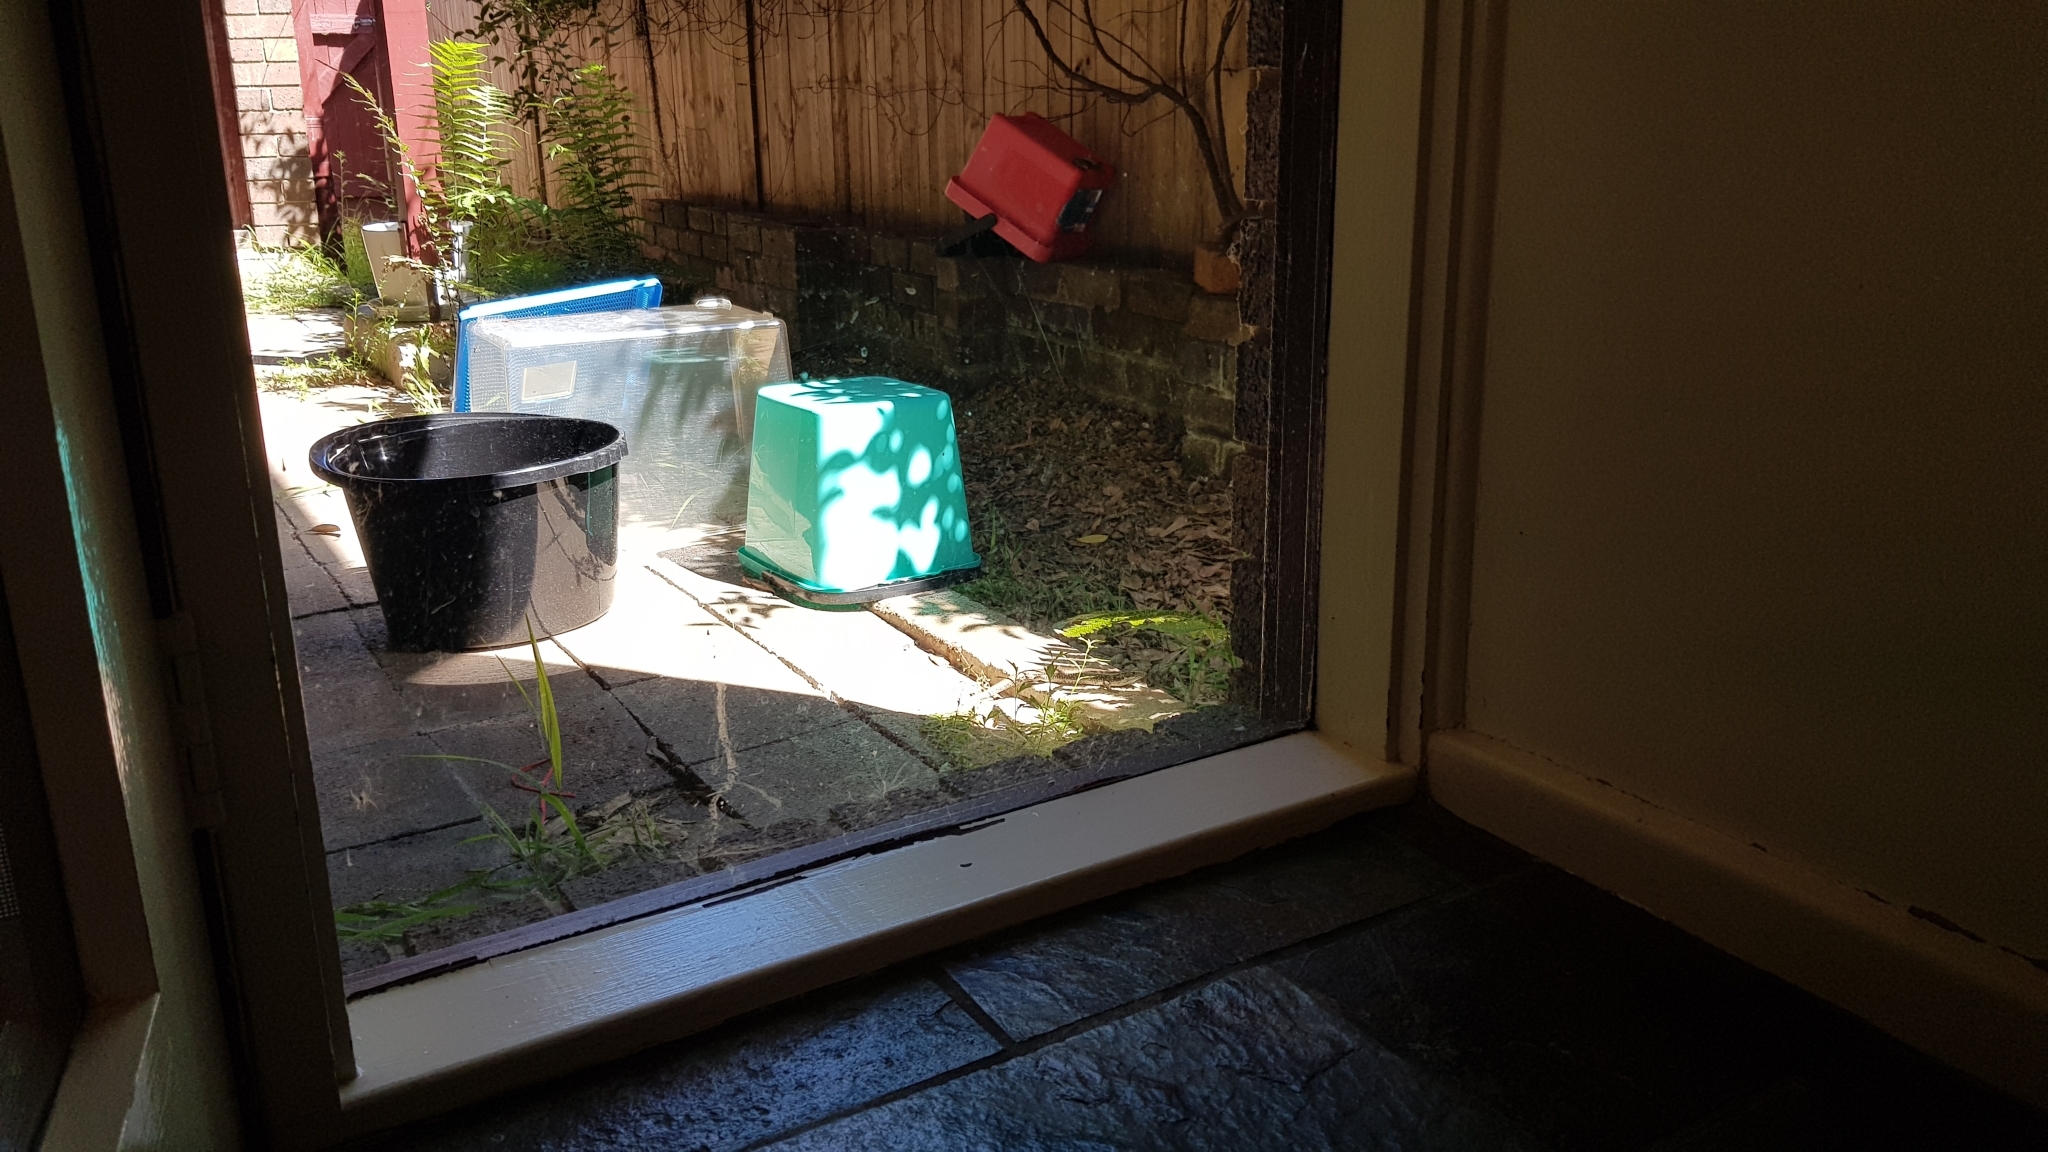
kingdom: Animalia
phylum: Chordata
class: Squamata
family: Scincidae
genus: Eulamprus
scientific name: Eulamprus quoyii
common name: Eastern water skink
